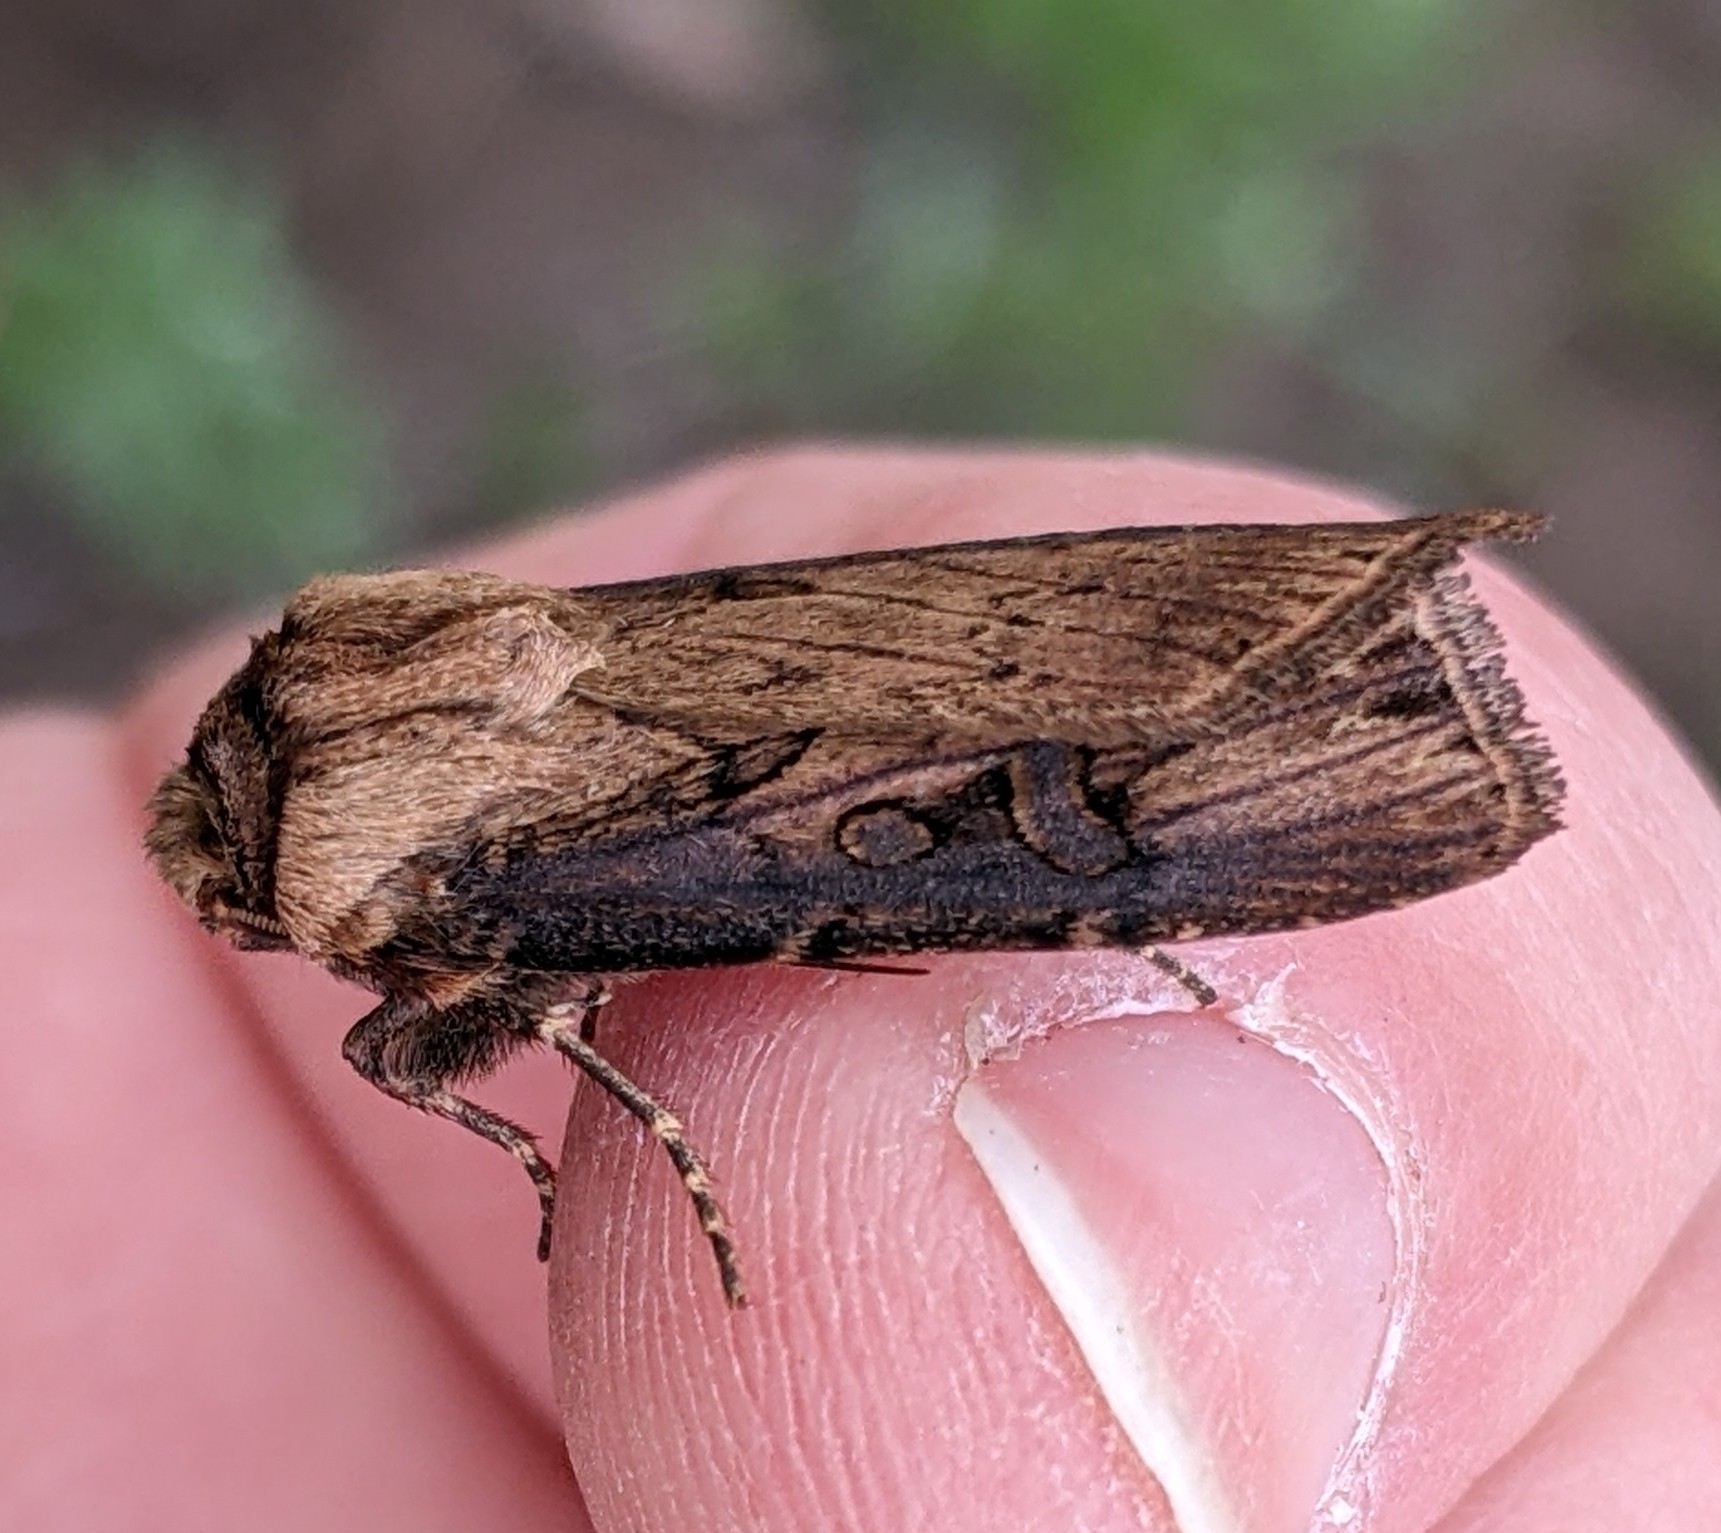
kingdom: Animalia
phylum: Arthropoda
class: Insecta
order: Lepidoptera
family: Noctuidae
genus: Agrotis
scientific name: Agrotis antica
